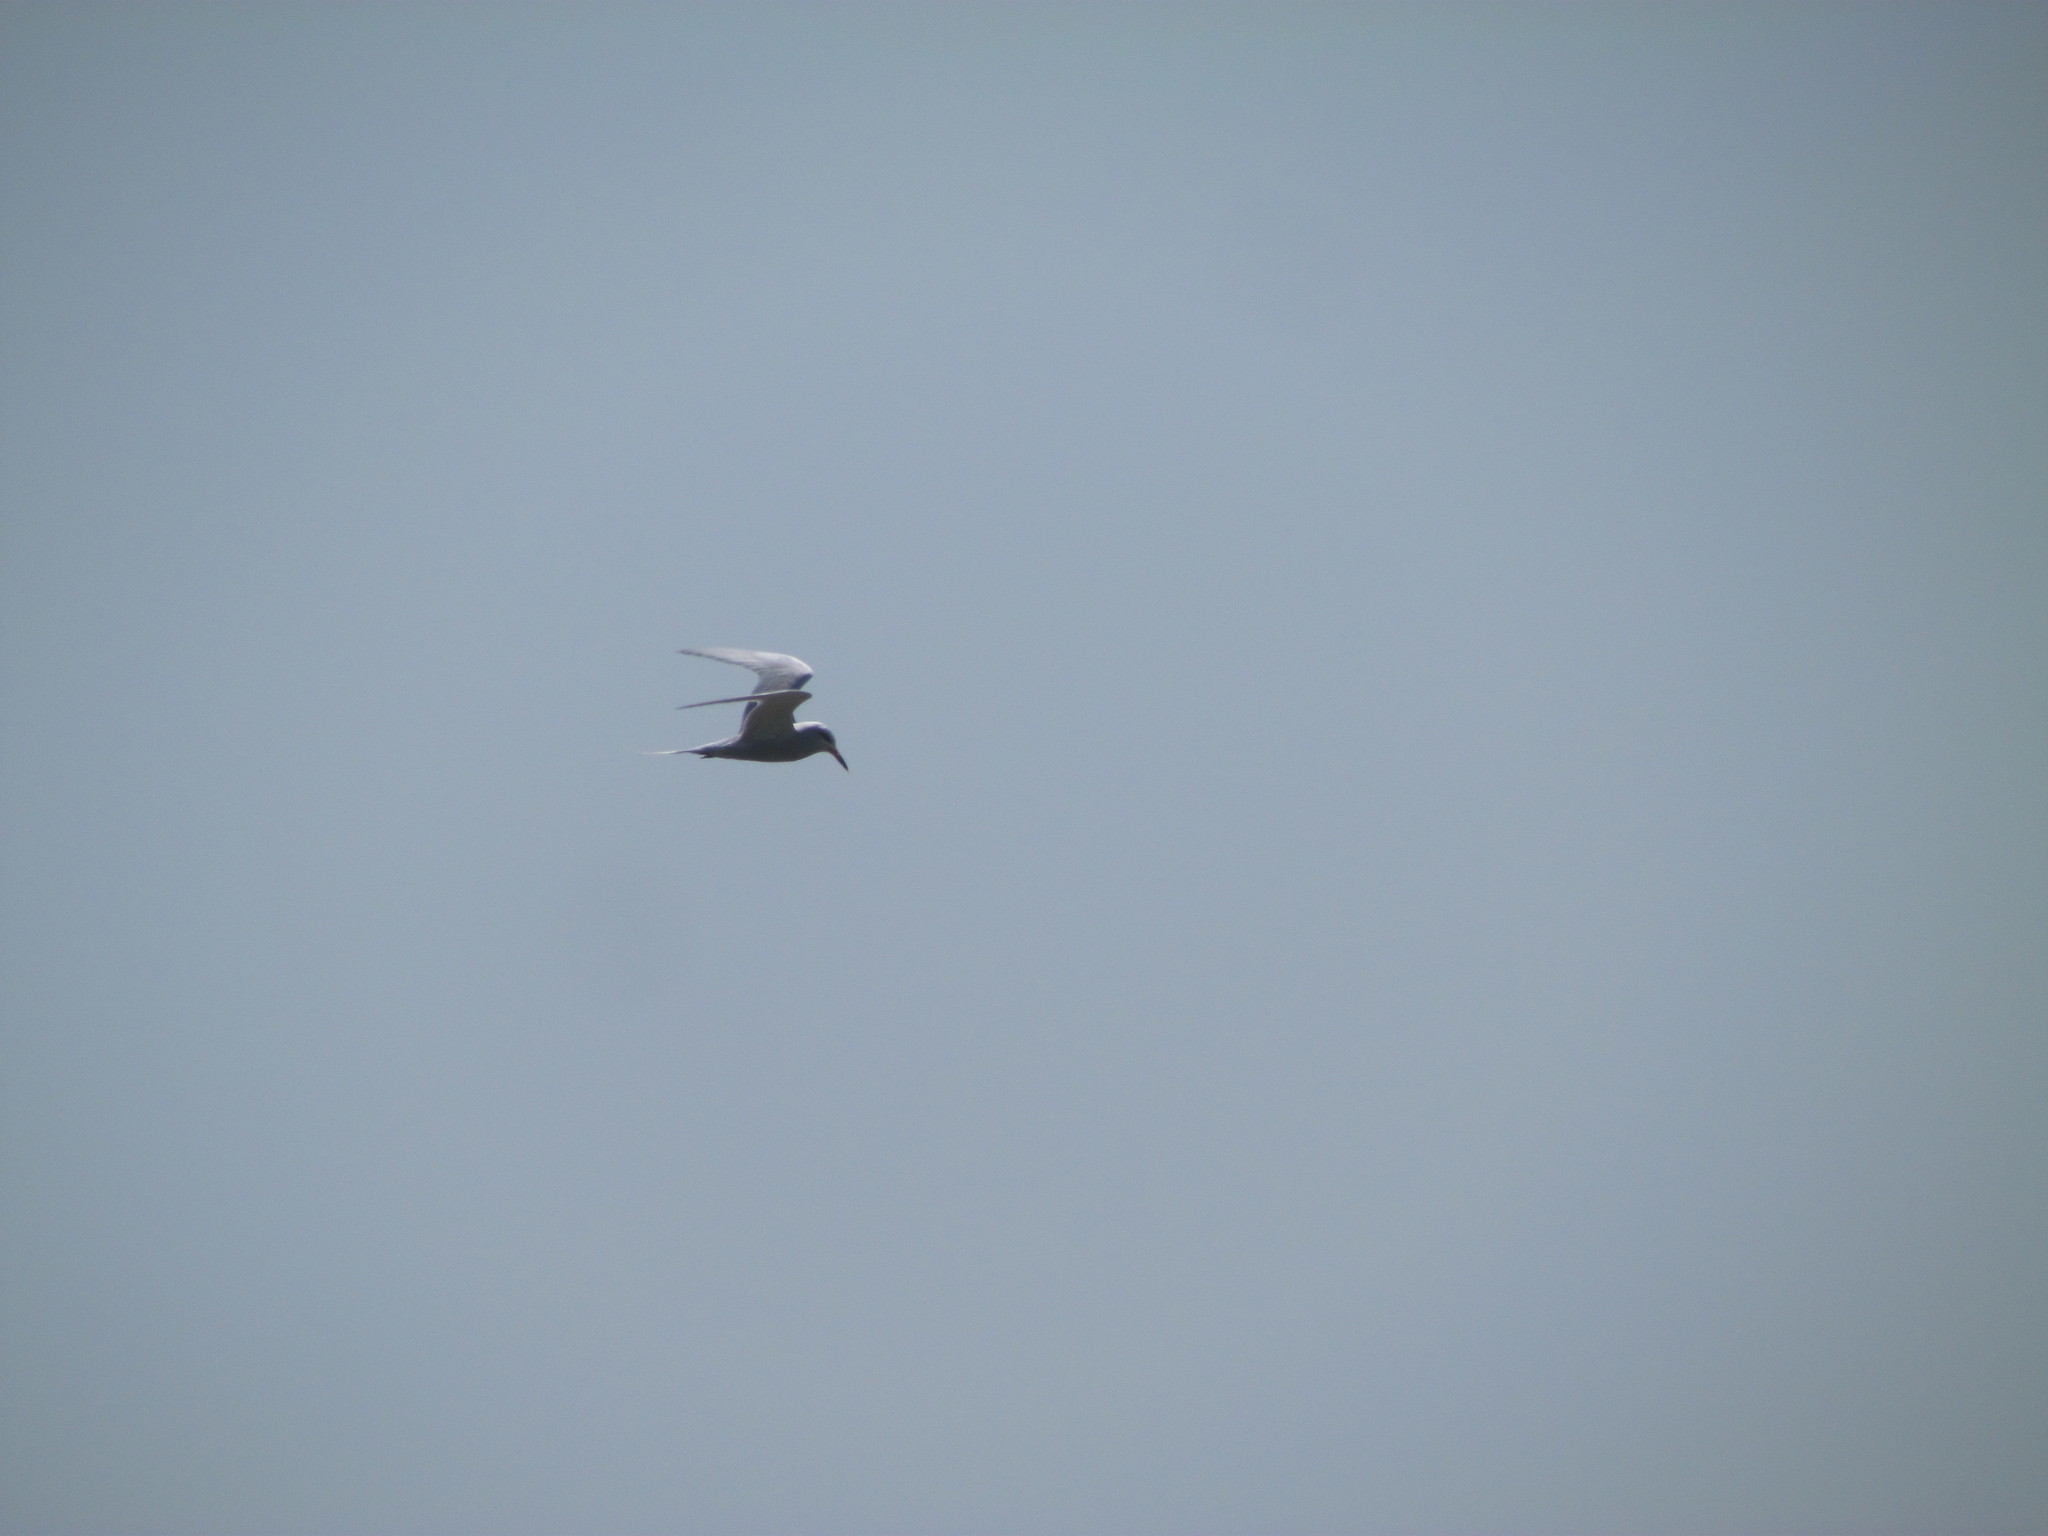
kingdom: Animalia
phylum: Chordata
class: Aves
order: Charadriiformes
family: Laridae
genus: Sterna
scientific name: Sterna trudeaui
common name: Snowy-crowned tern
